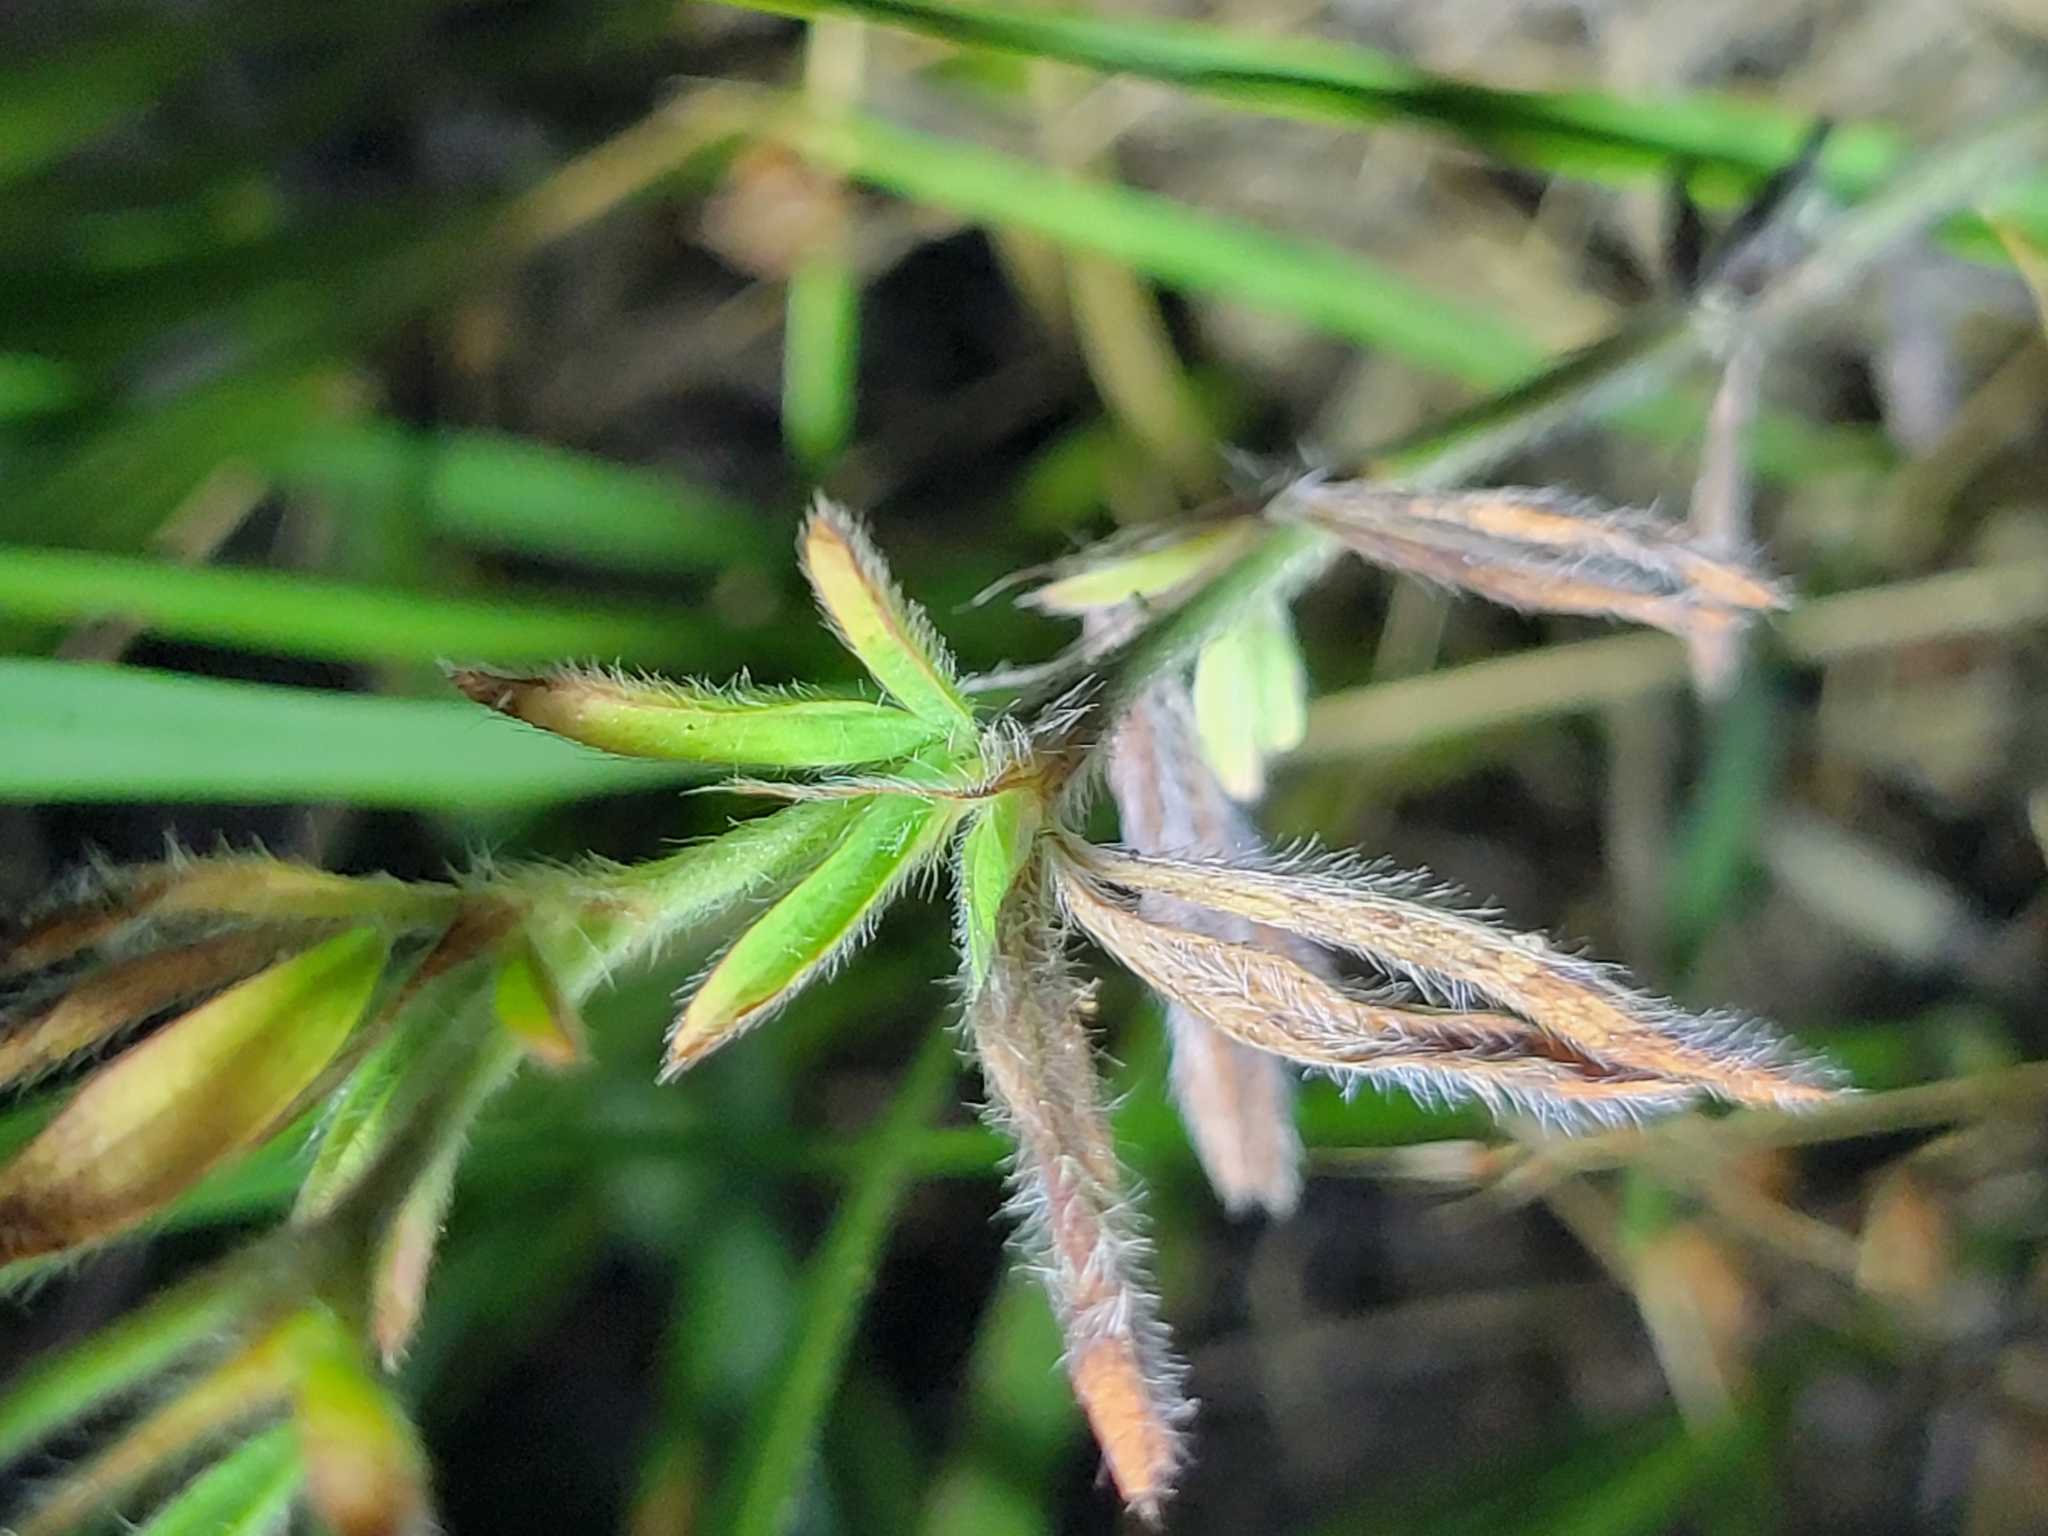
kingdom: Plantae
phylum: Tracheophyta
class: Magnoliopsida
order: Fabales
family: Fabaceae
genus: Trifolium
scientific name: Trifolium arvense
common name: Hare's-foot clover
